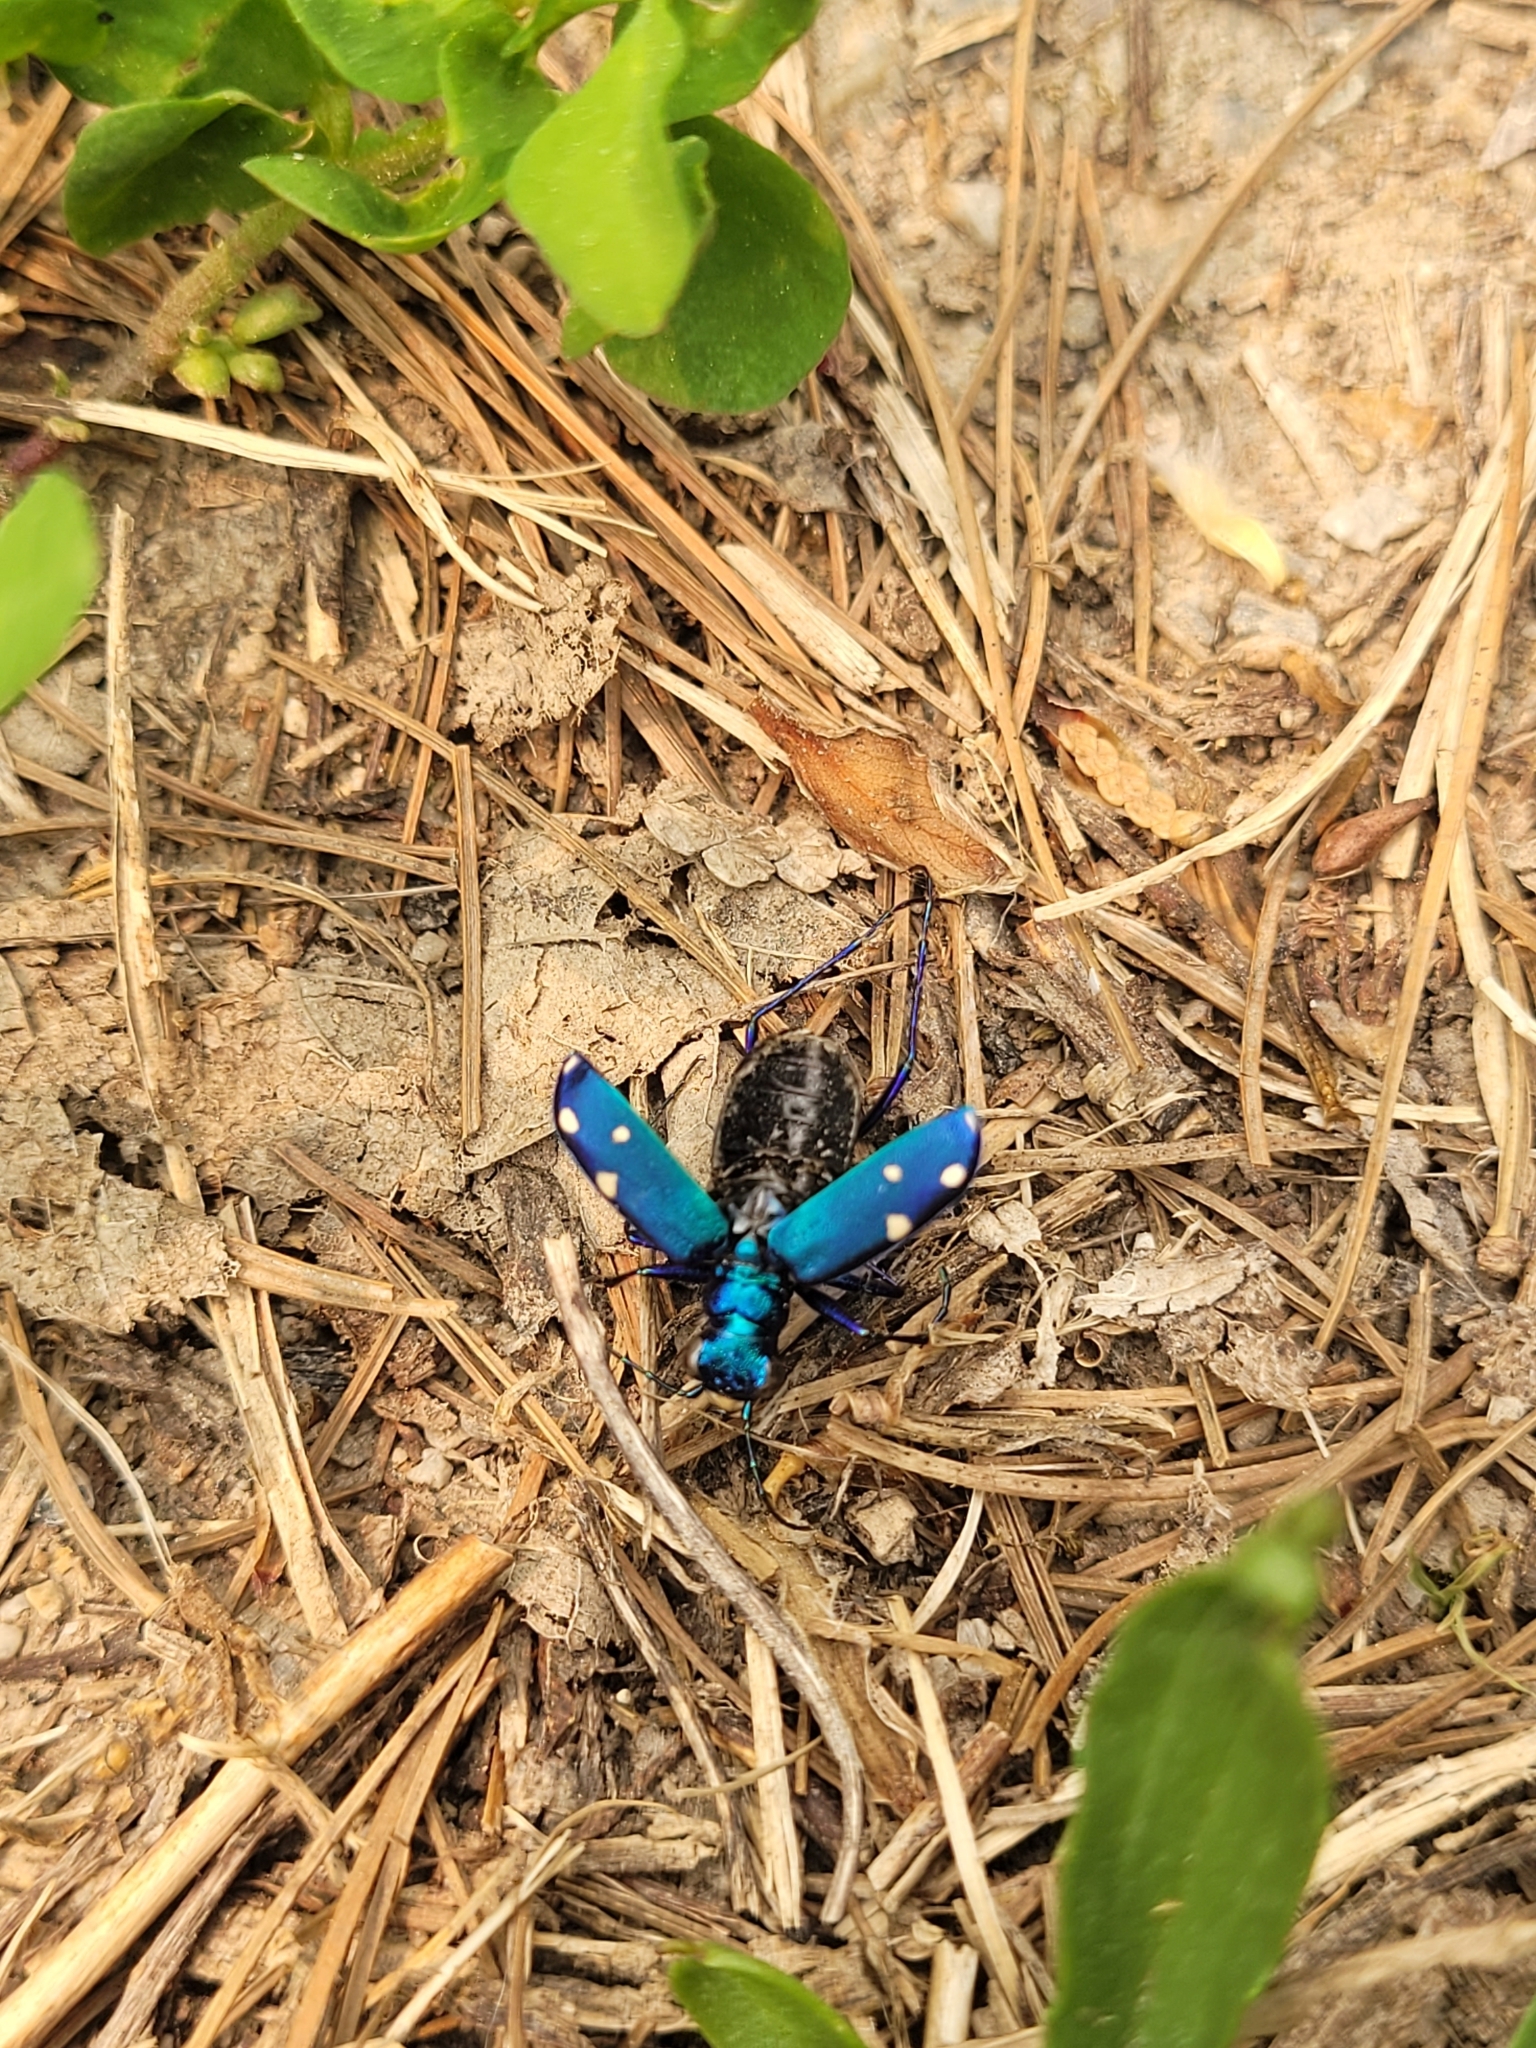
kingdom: Animalia
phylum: Arthropoda
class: Insecta
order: Coleoptera
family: Carabidae
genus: Cicindela
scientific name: Cicindela sexguttata
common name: Six-spotted tiger beetle
